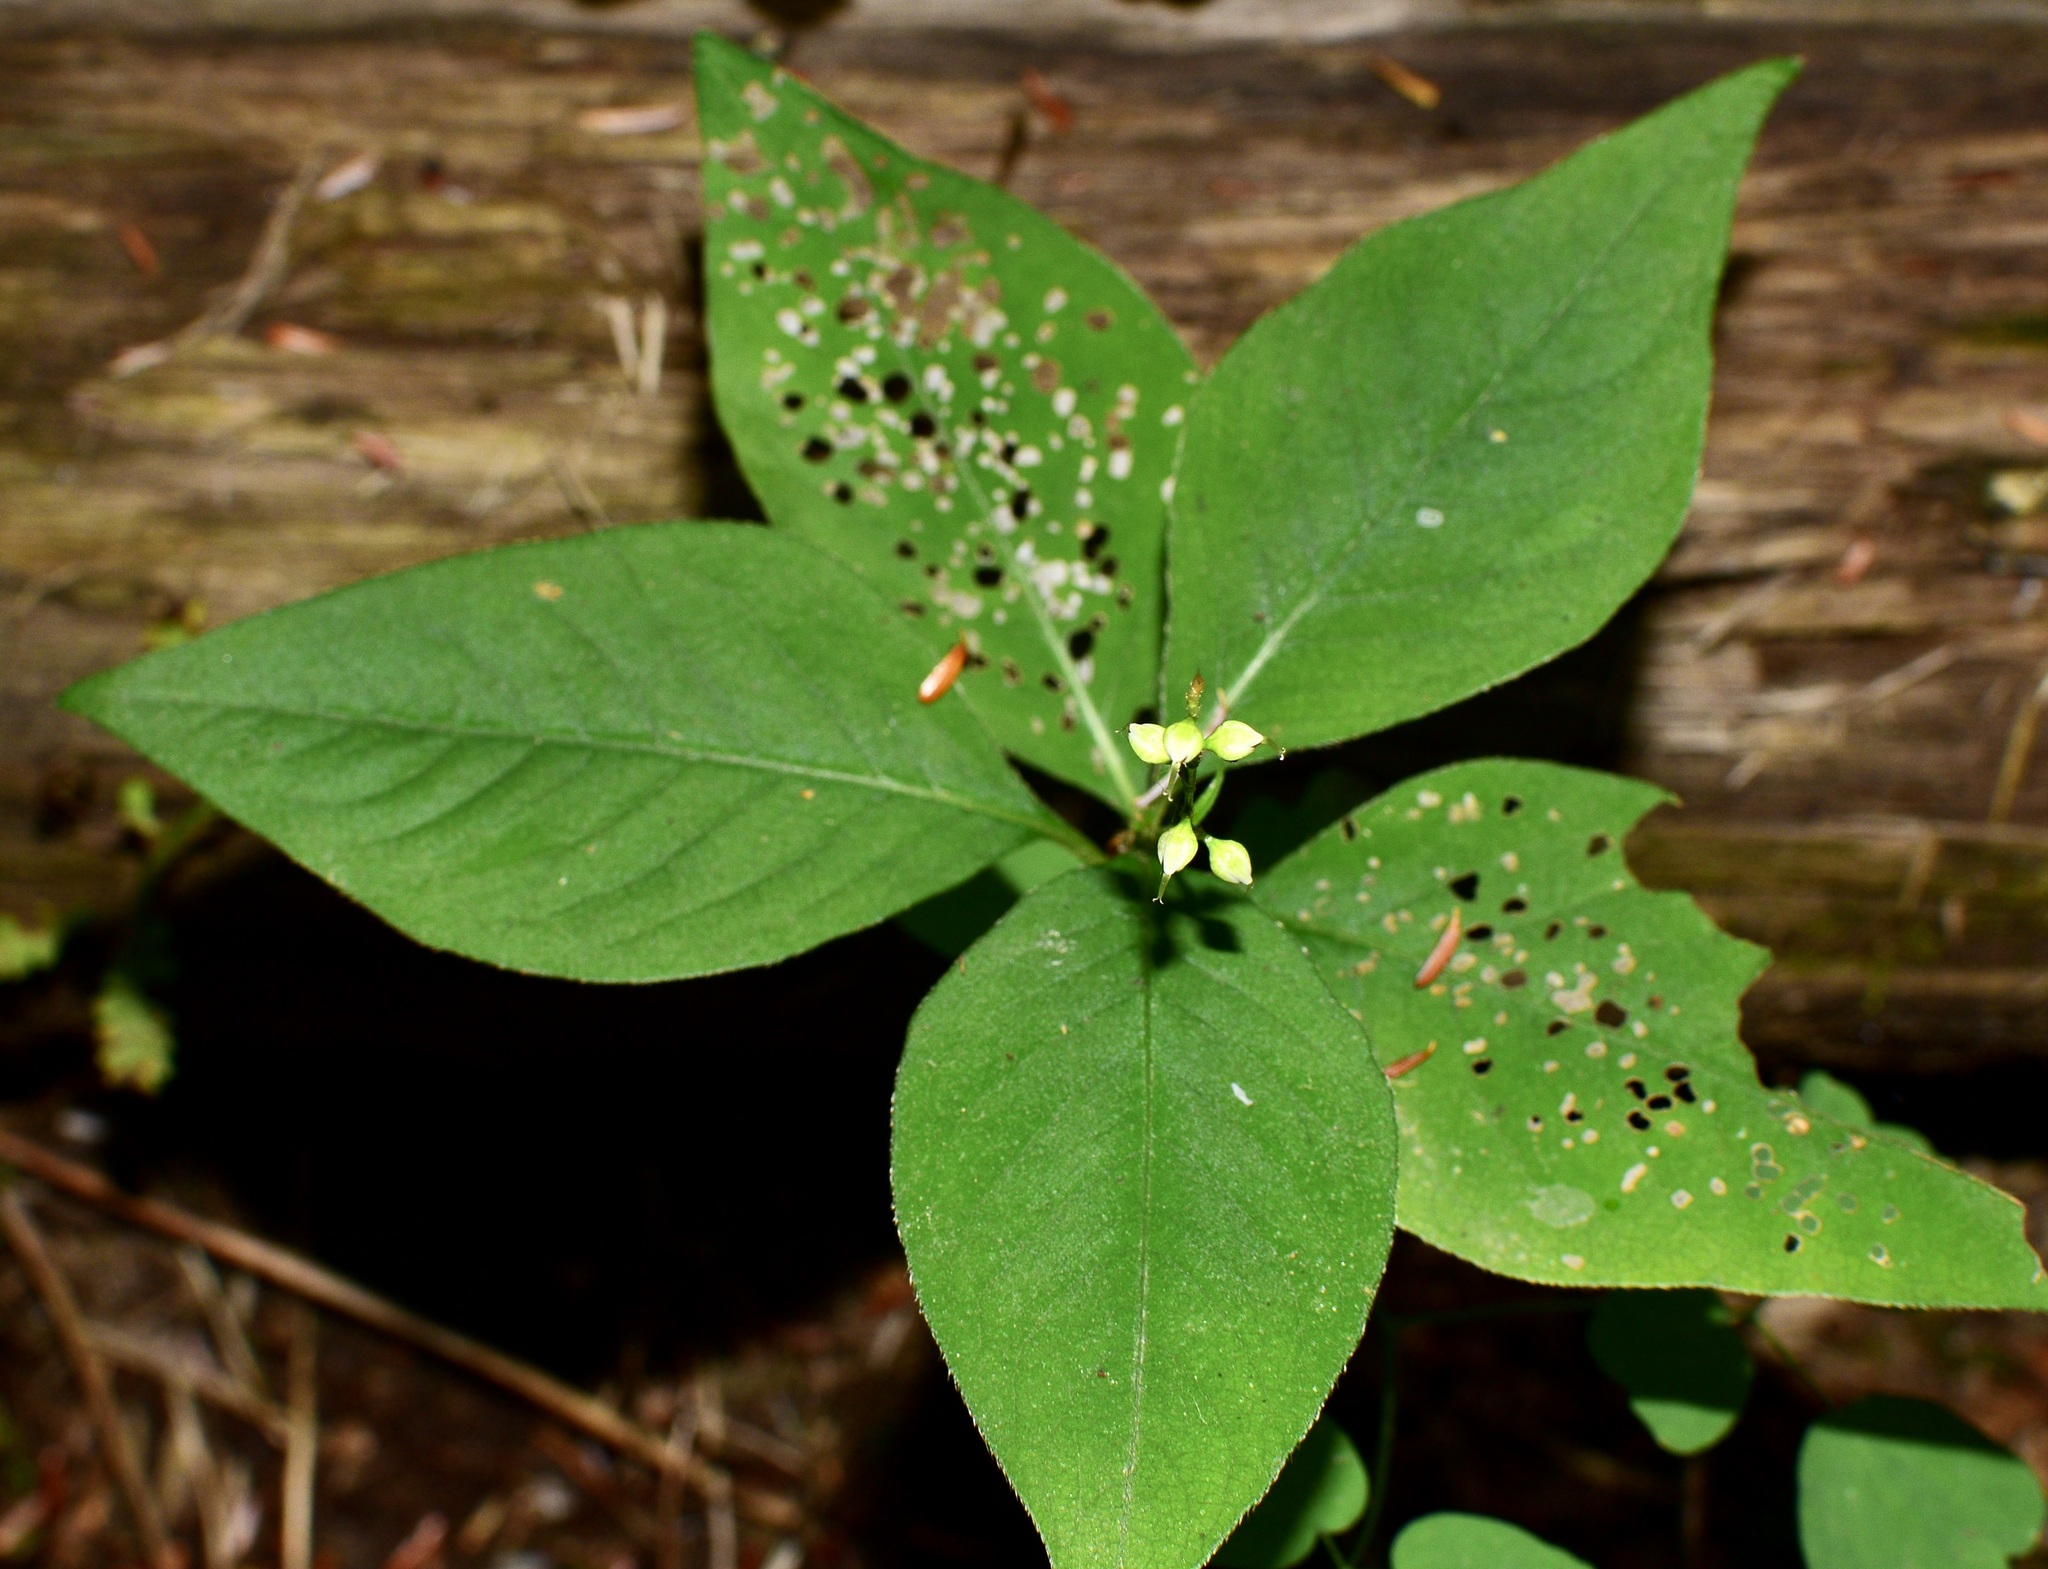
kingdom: Plantae
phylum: Tracheophyta
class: Magnoliopsida
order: Caryophyllales
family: Polygonaceae
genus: Persicaria
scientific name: Persicaria virginiana
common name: Jumpseed
